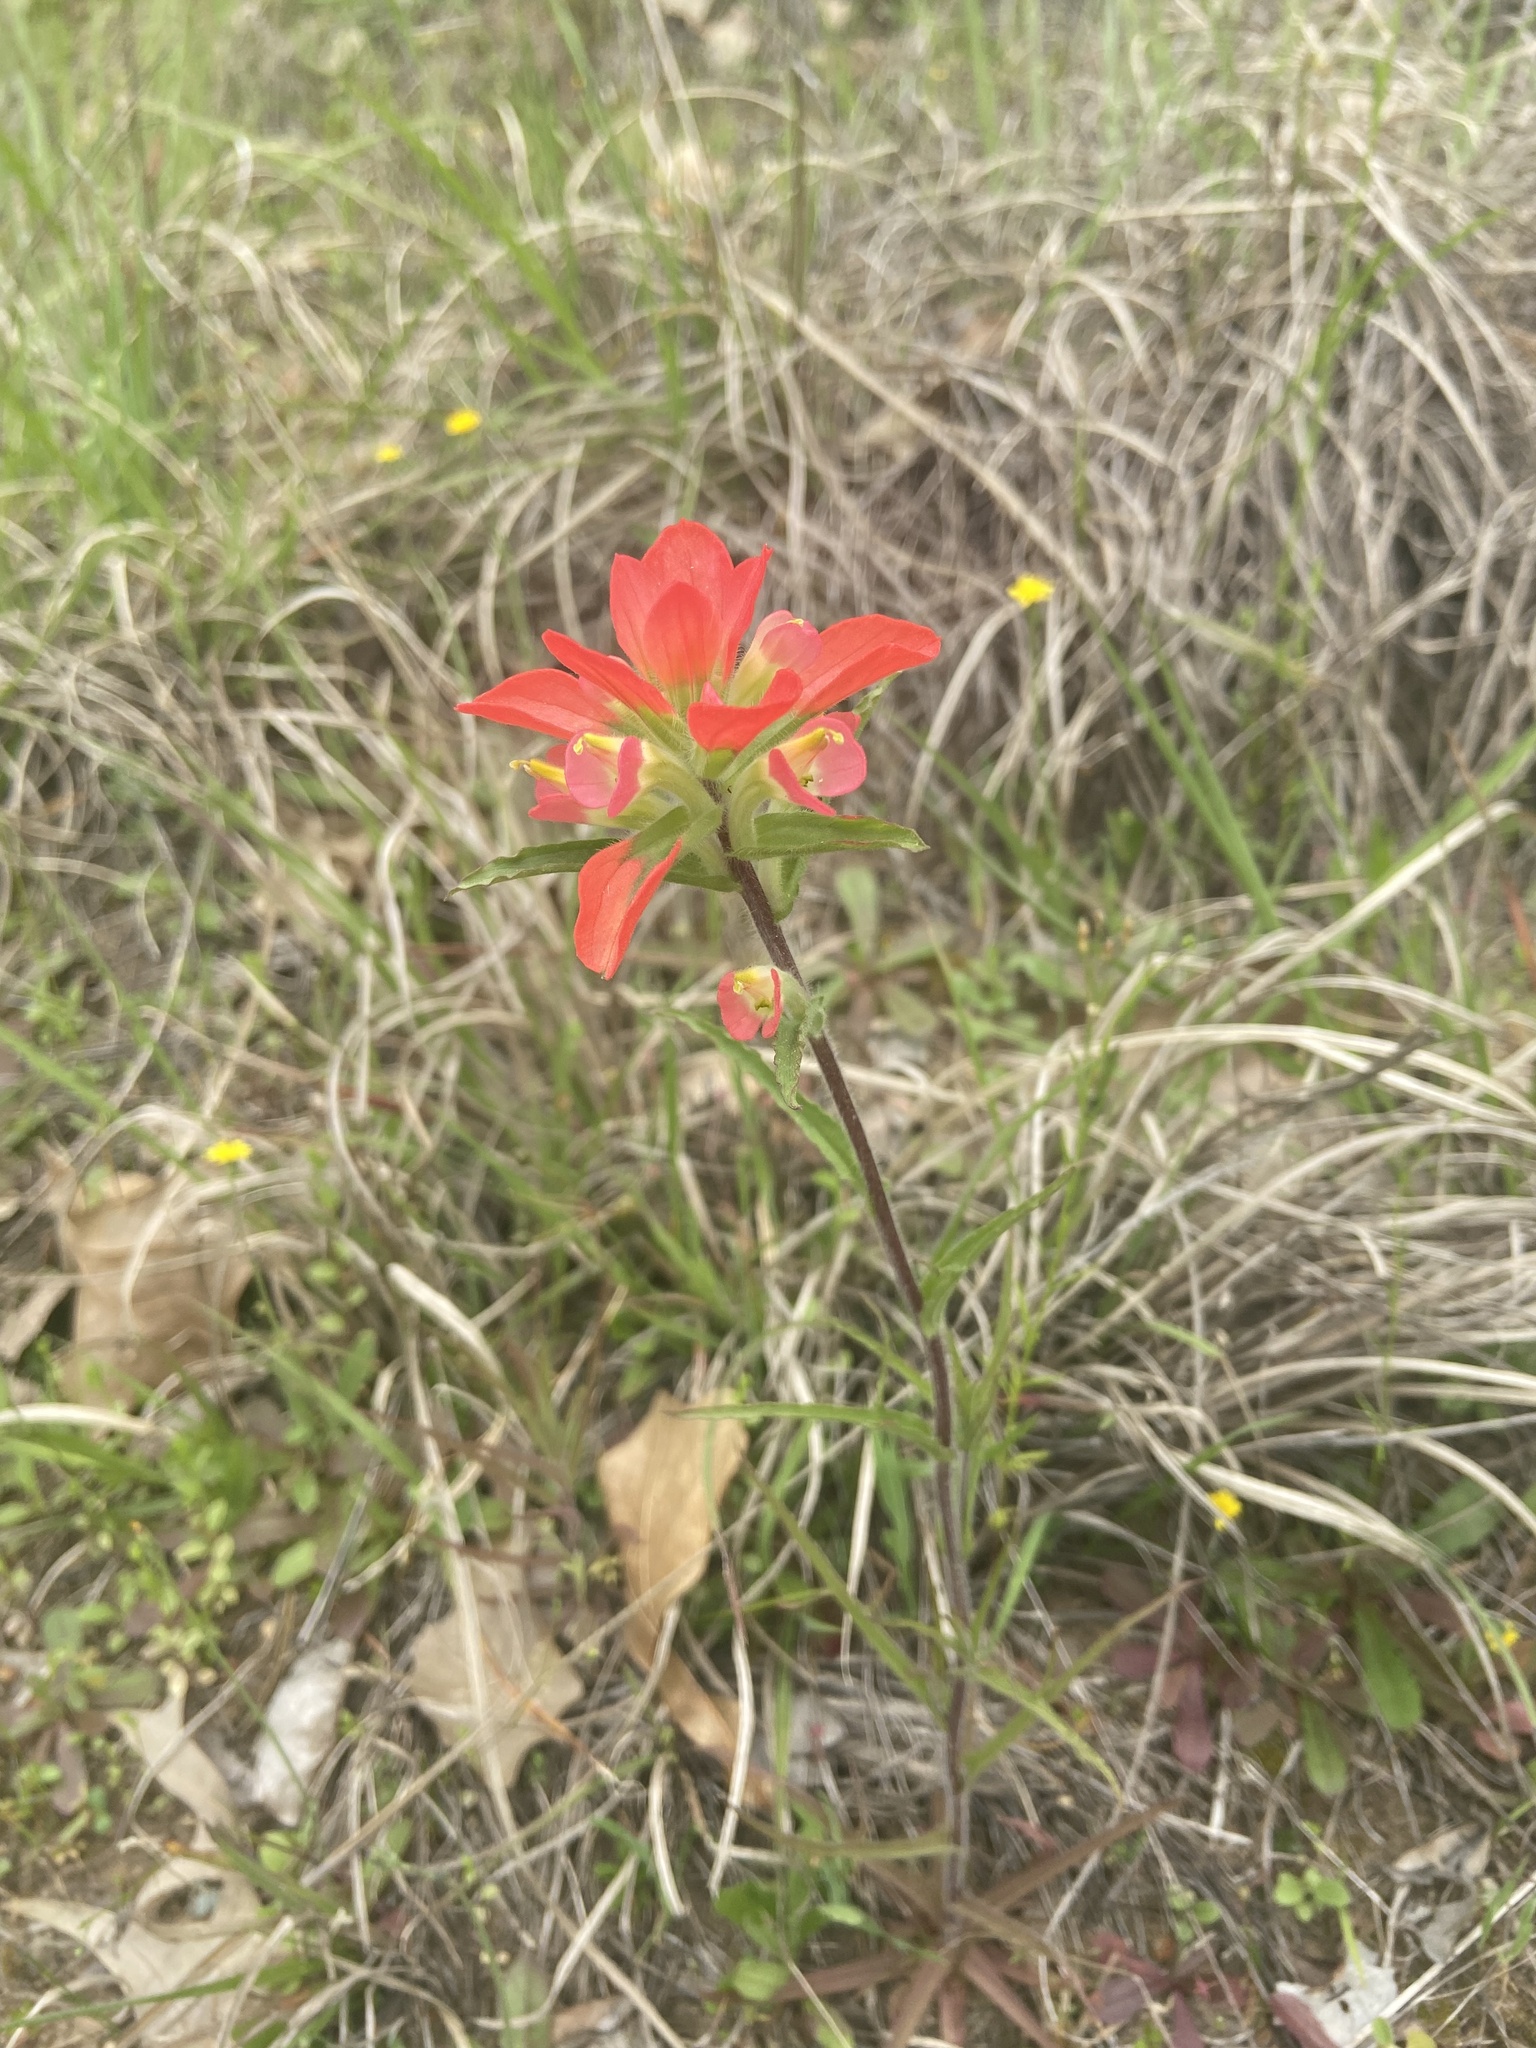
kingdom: Plantae
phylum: Tracheophyta
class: Magnoliopsida
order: Lamiales
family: Orobanchaceae
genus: Castilleja
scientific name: Castilleja indivisa
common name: Texas paintbrush
